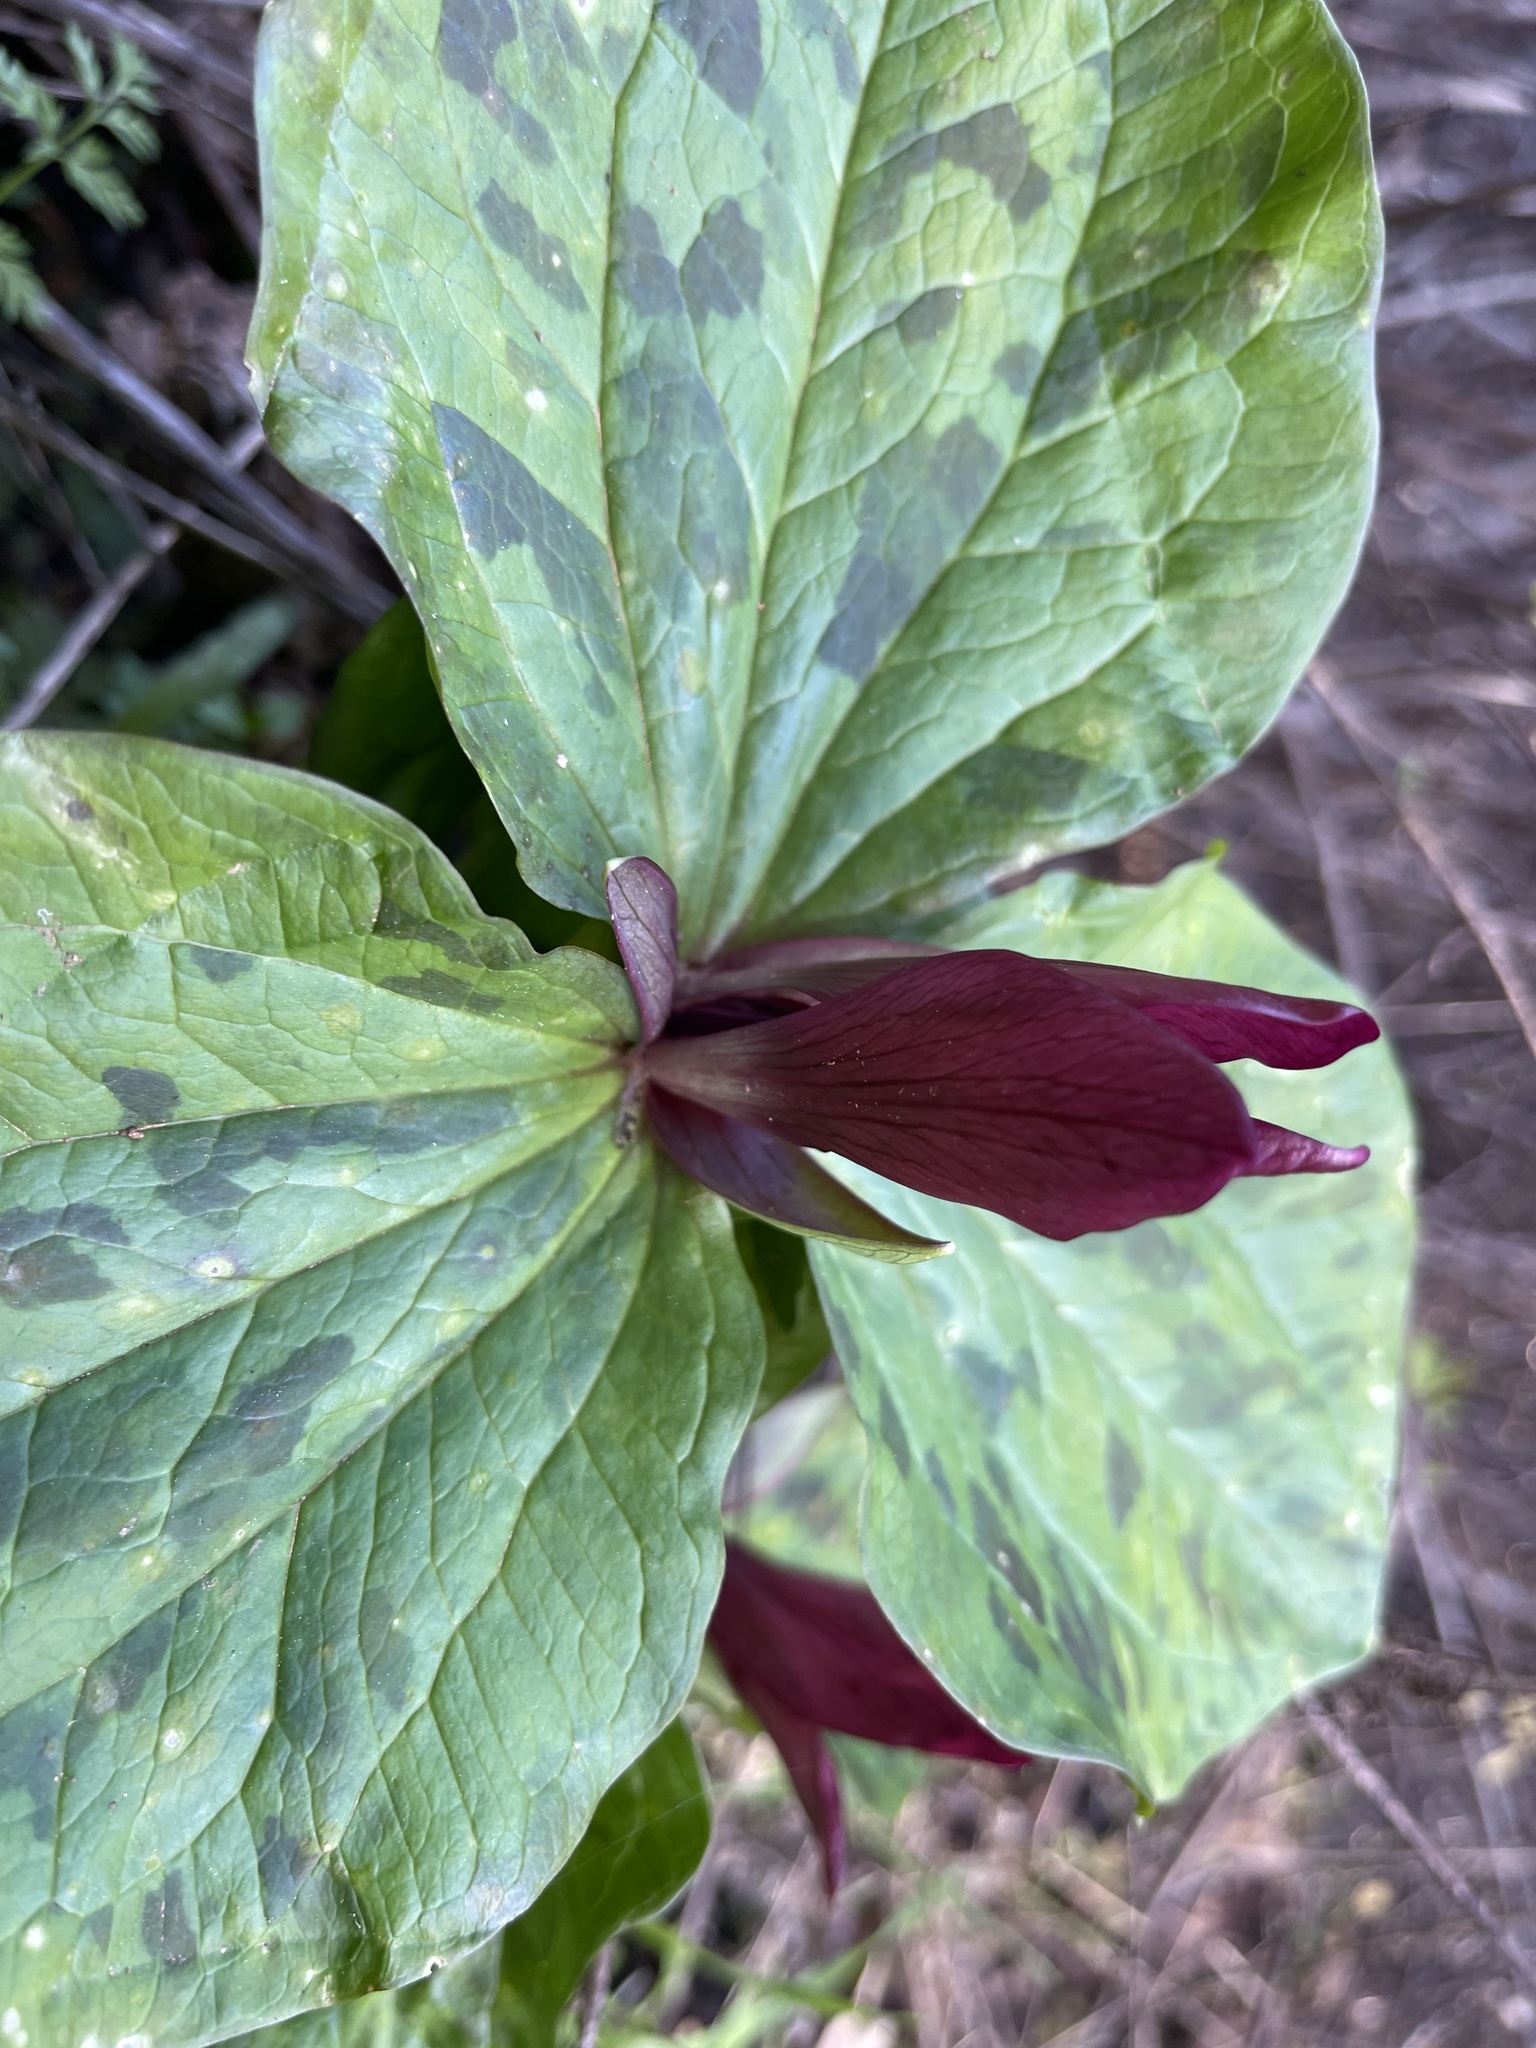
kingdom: Plantae
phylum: Tracheophyta
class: Liliopsida
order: Liliales
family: Melanthiaceae
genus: Trillium
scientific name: Trillium chloropetalum
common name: Giant trillium
